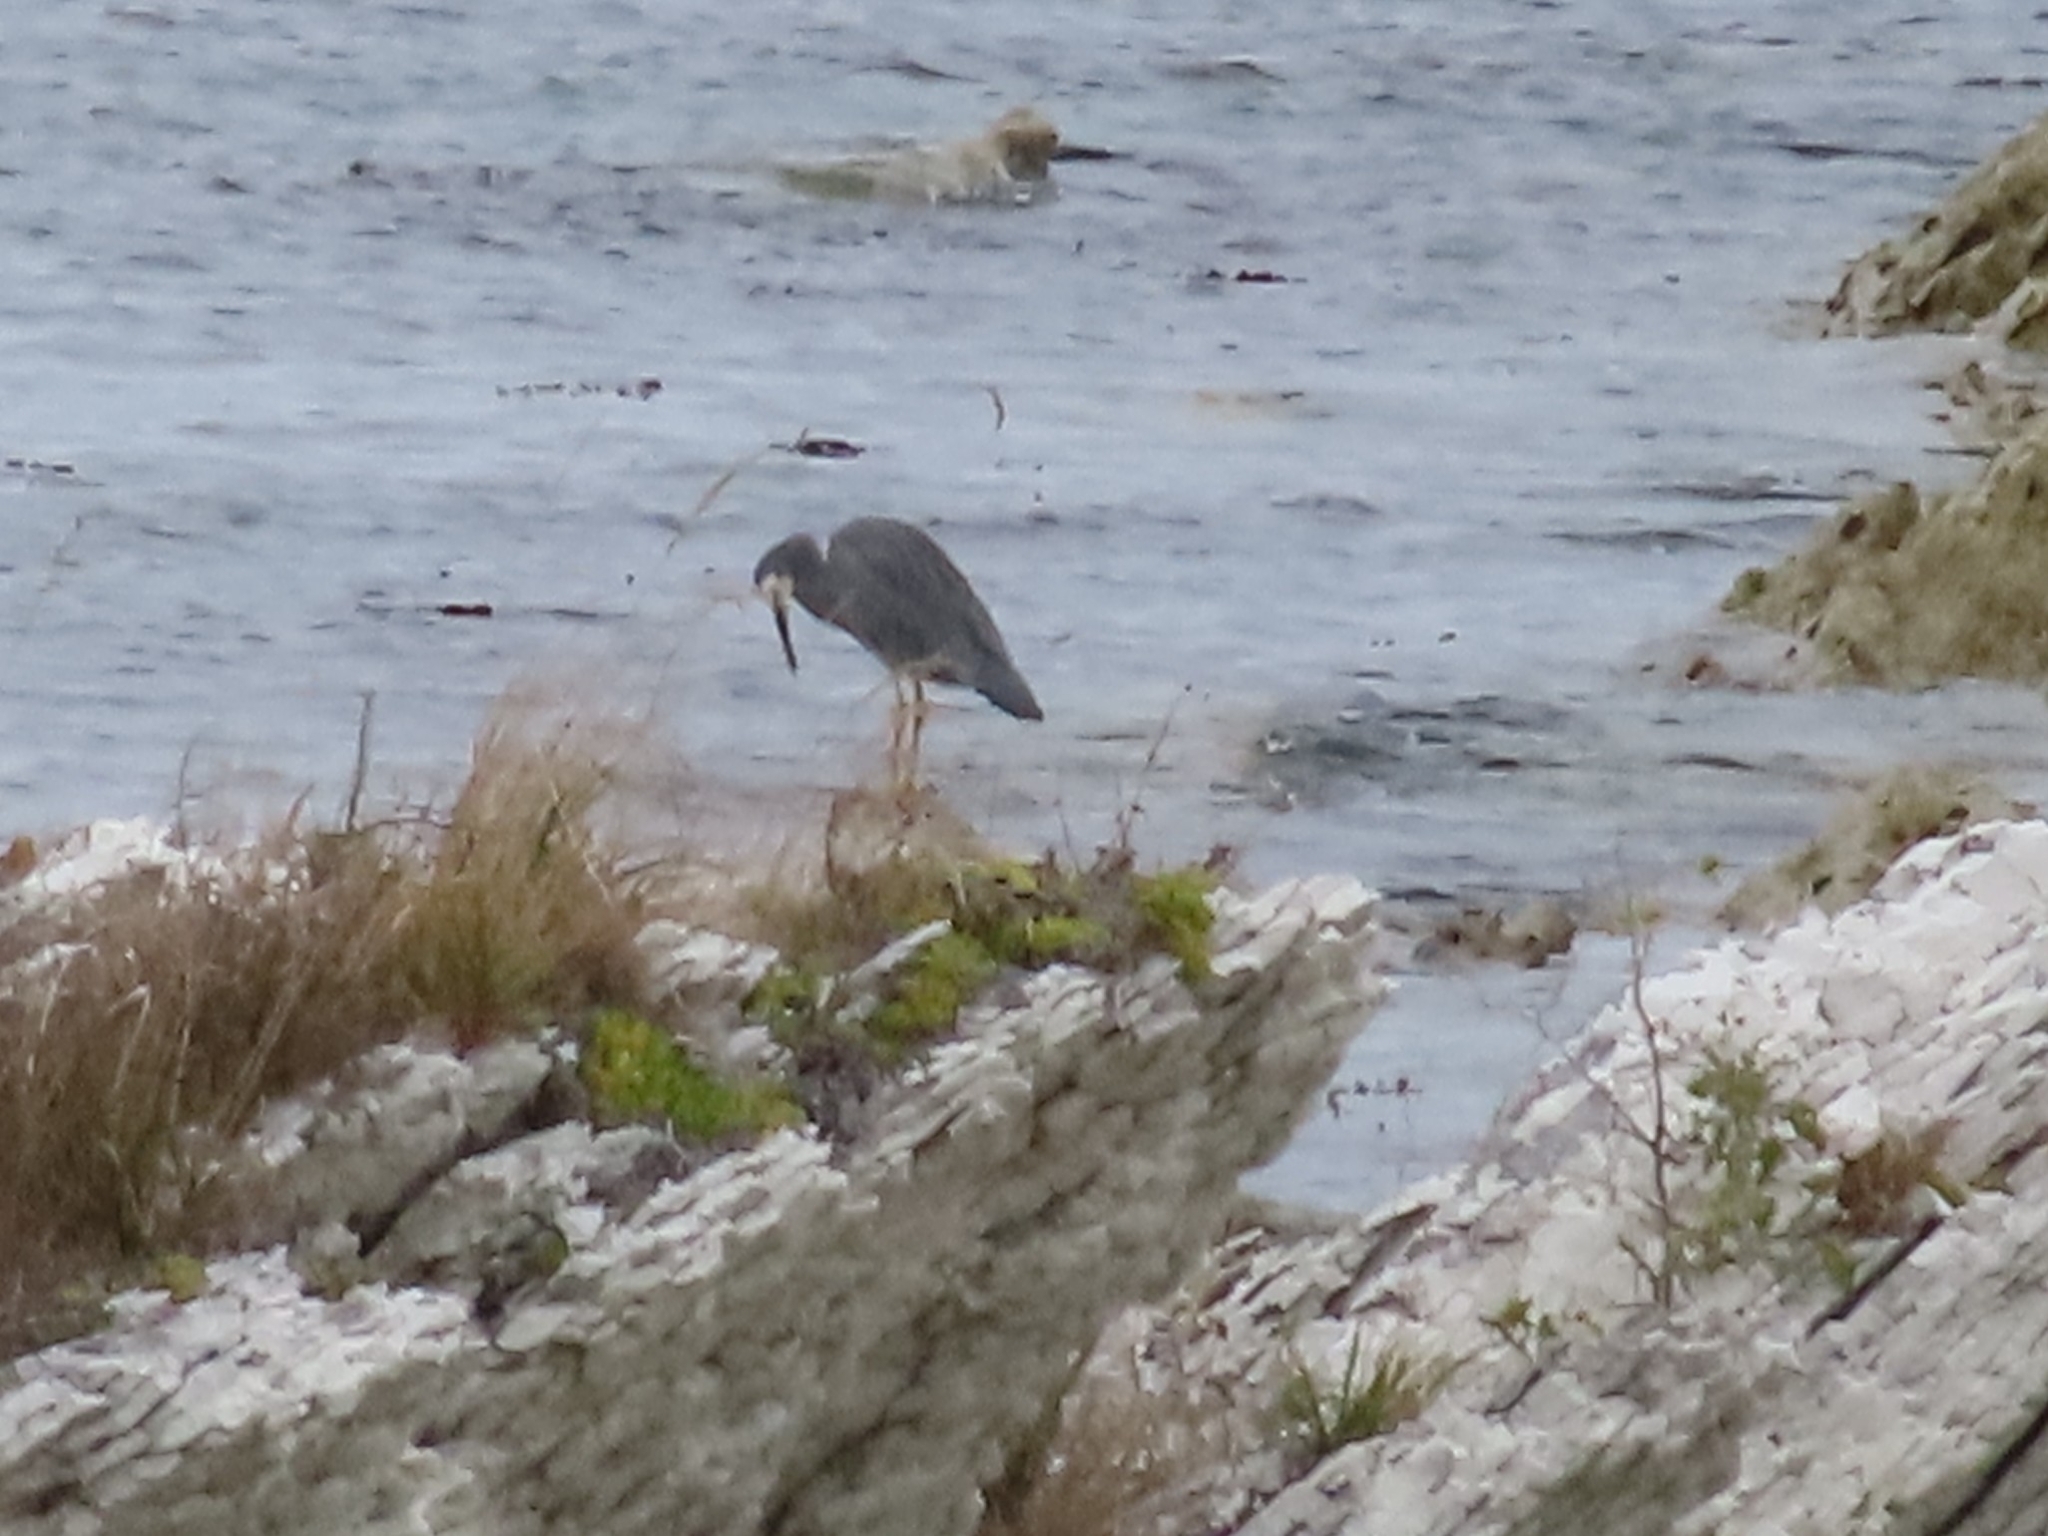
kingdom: Animalia
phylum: Chordata
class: Aves
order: Pelecaniformes
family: Ardeidae
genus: Egretta
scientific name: Egretta novaehollandiae
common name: White-faced heron
